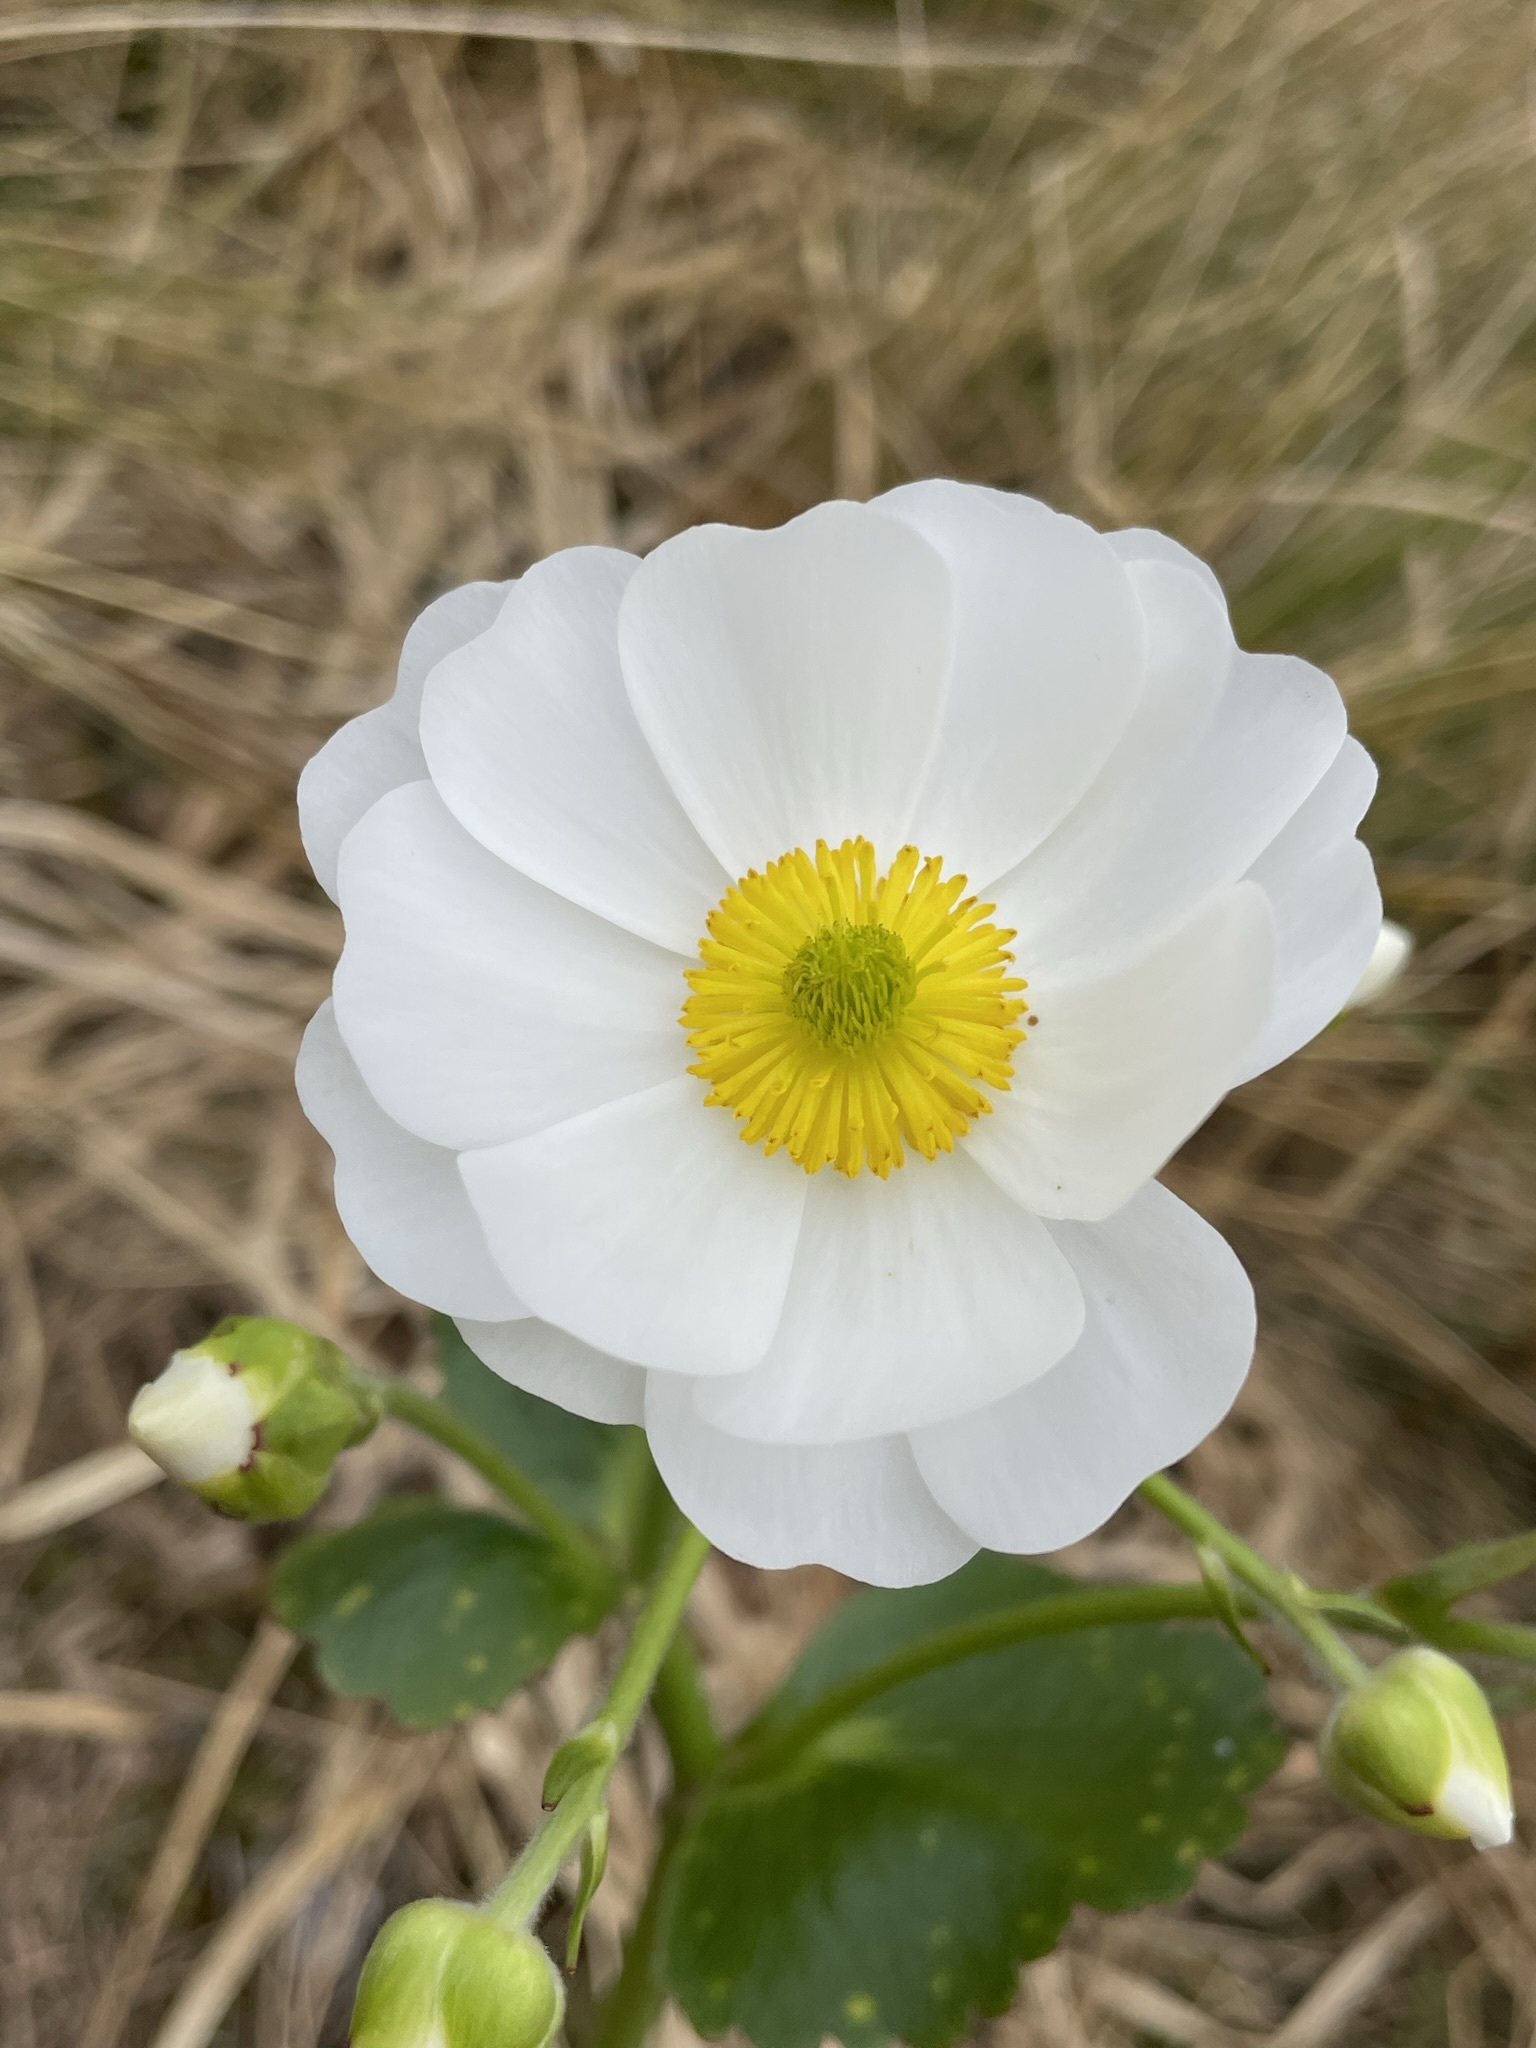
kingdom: Plantae
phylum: Tracheophyta
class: Magnoliopsida
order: Ranunculales
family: Ranunculaceae
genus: Ranunculus
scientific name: Ranunculus lyallii
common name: Mountain-lily
